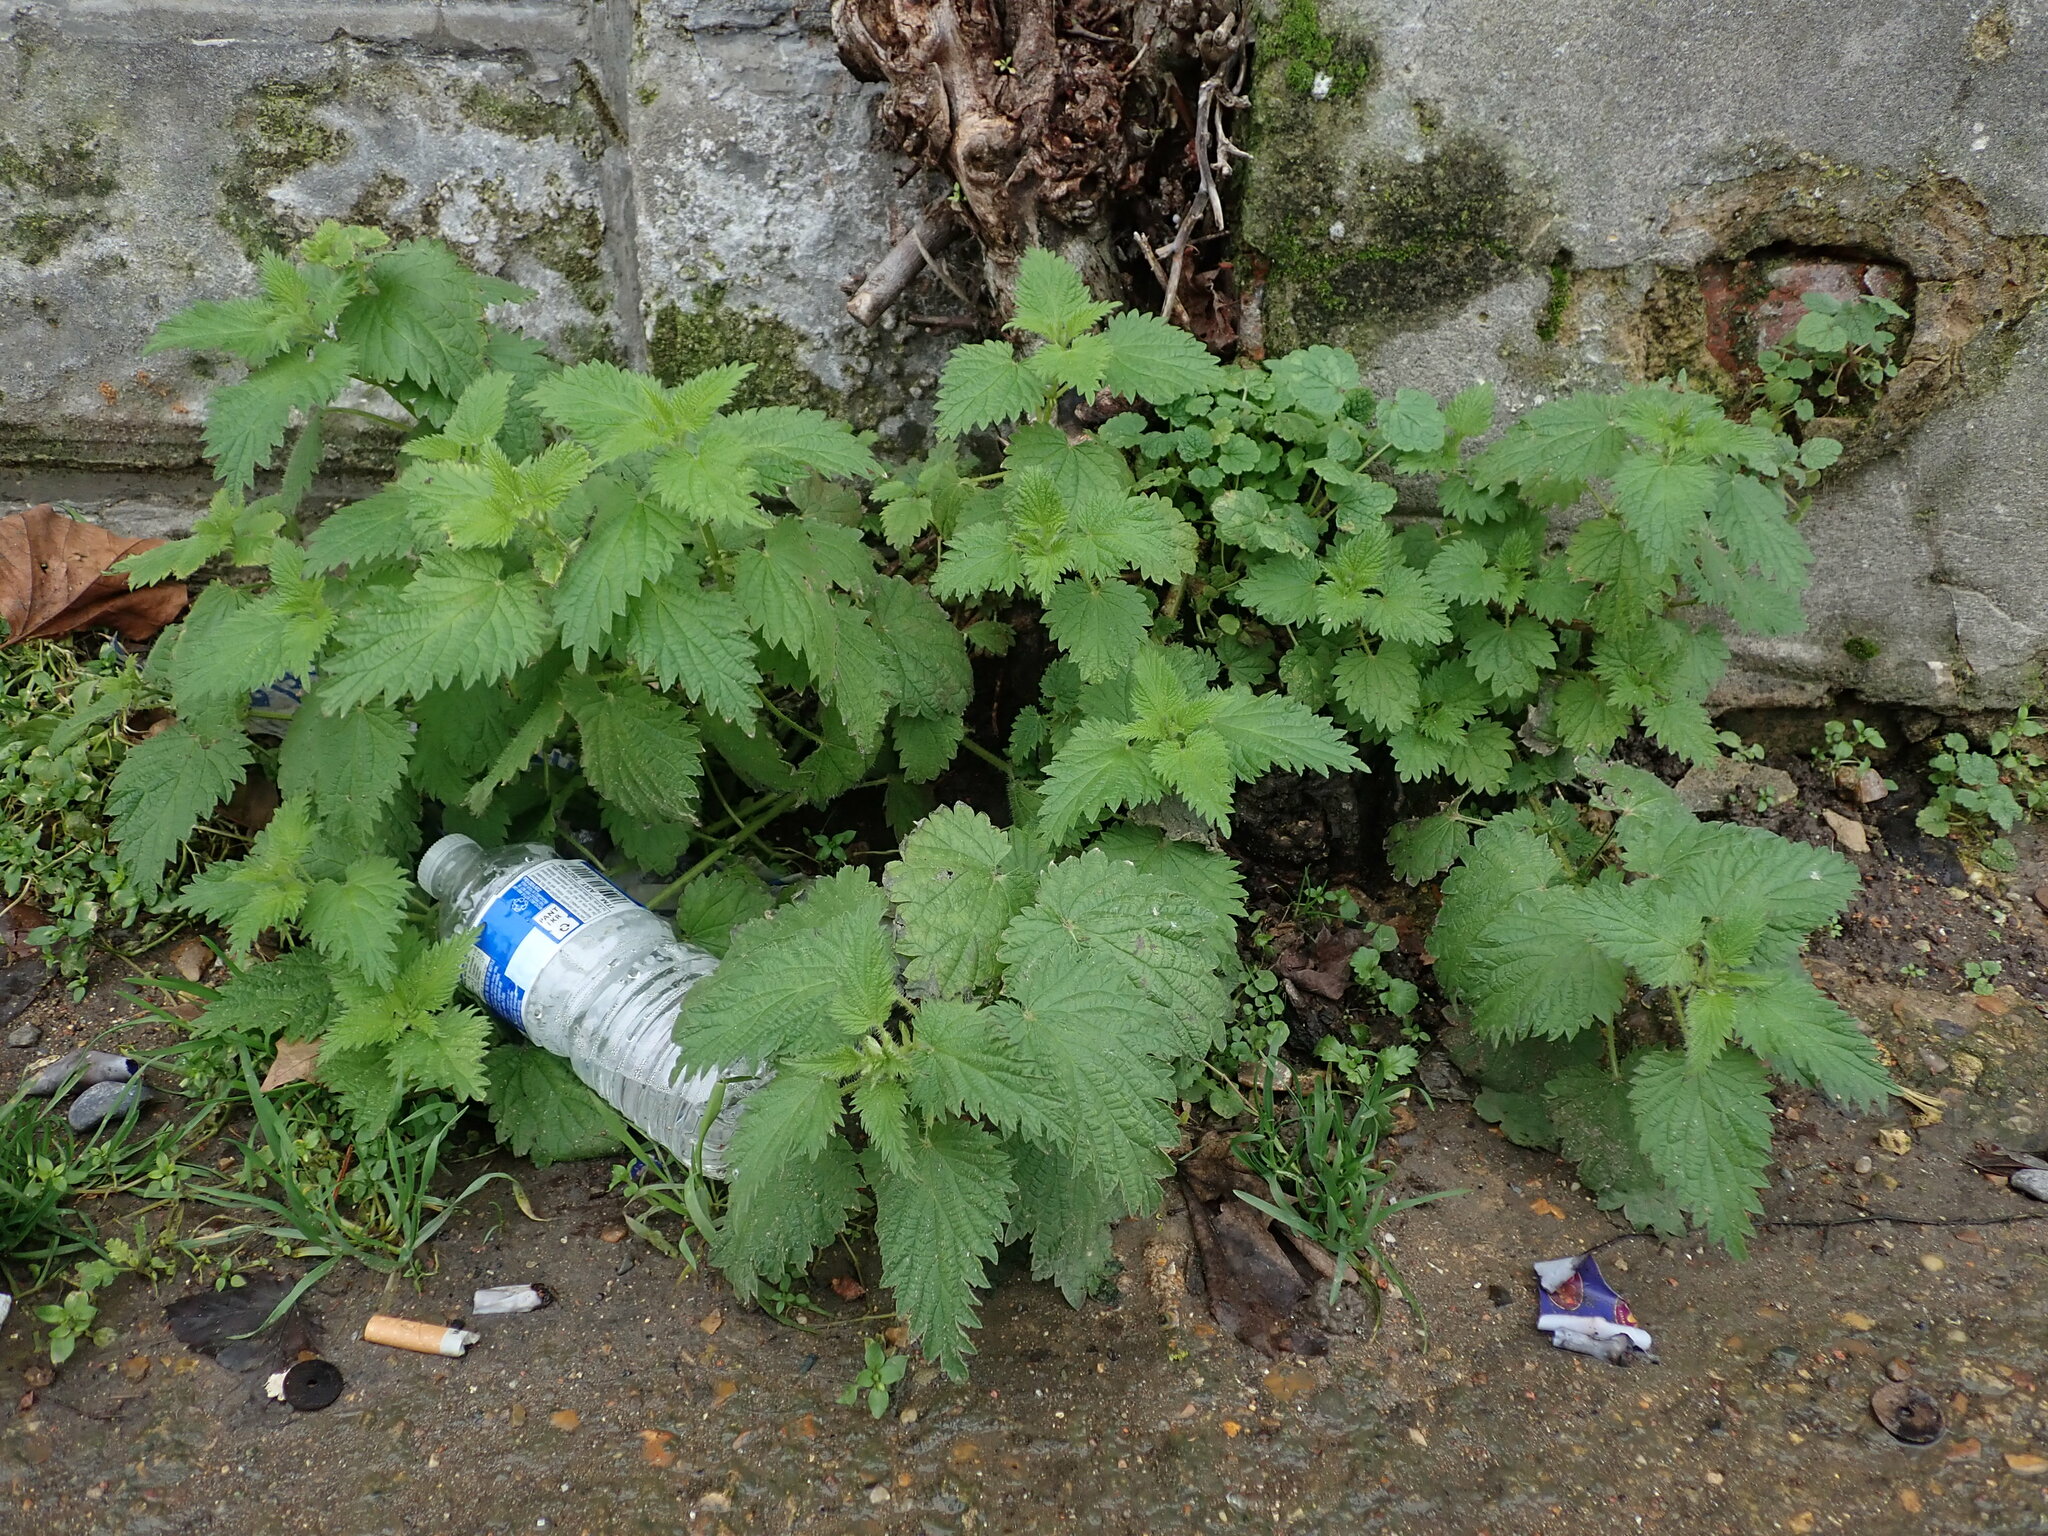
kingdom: Plantae
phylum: Tracheophyta
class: Magnoliopsida
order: Rosales
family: Urticaceae
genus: Urtica
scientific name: Urtica dioica
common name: Common nettle
